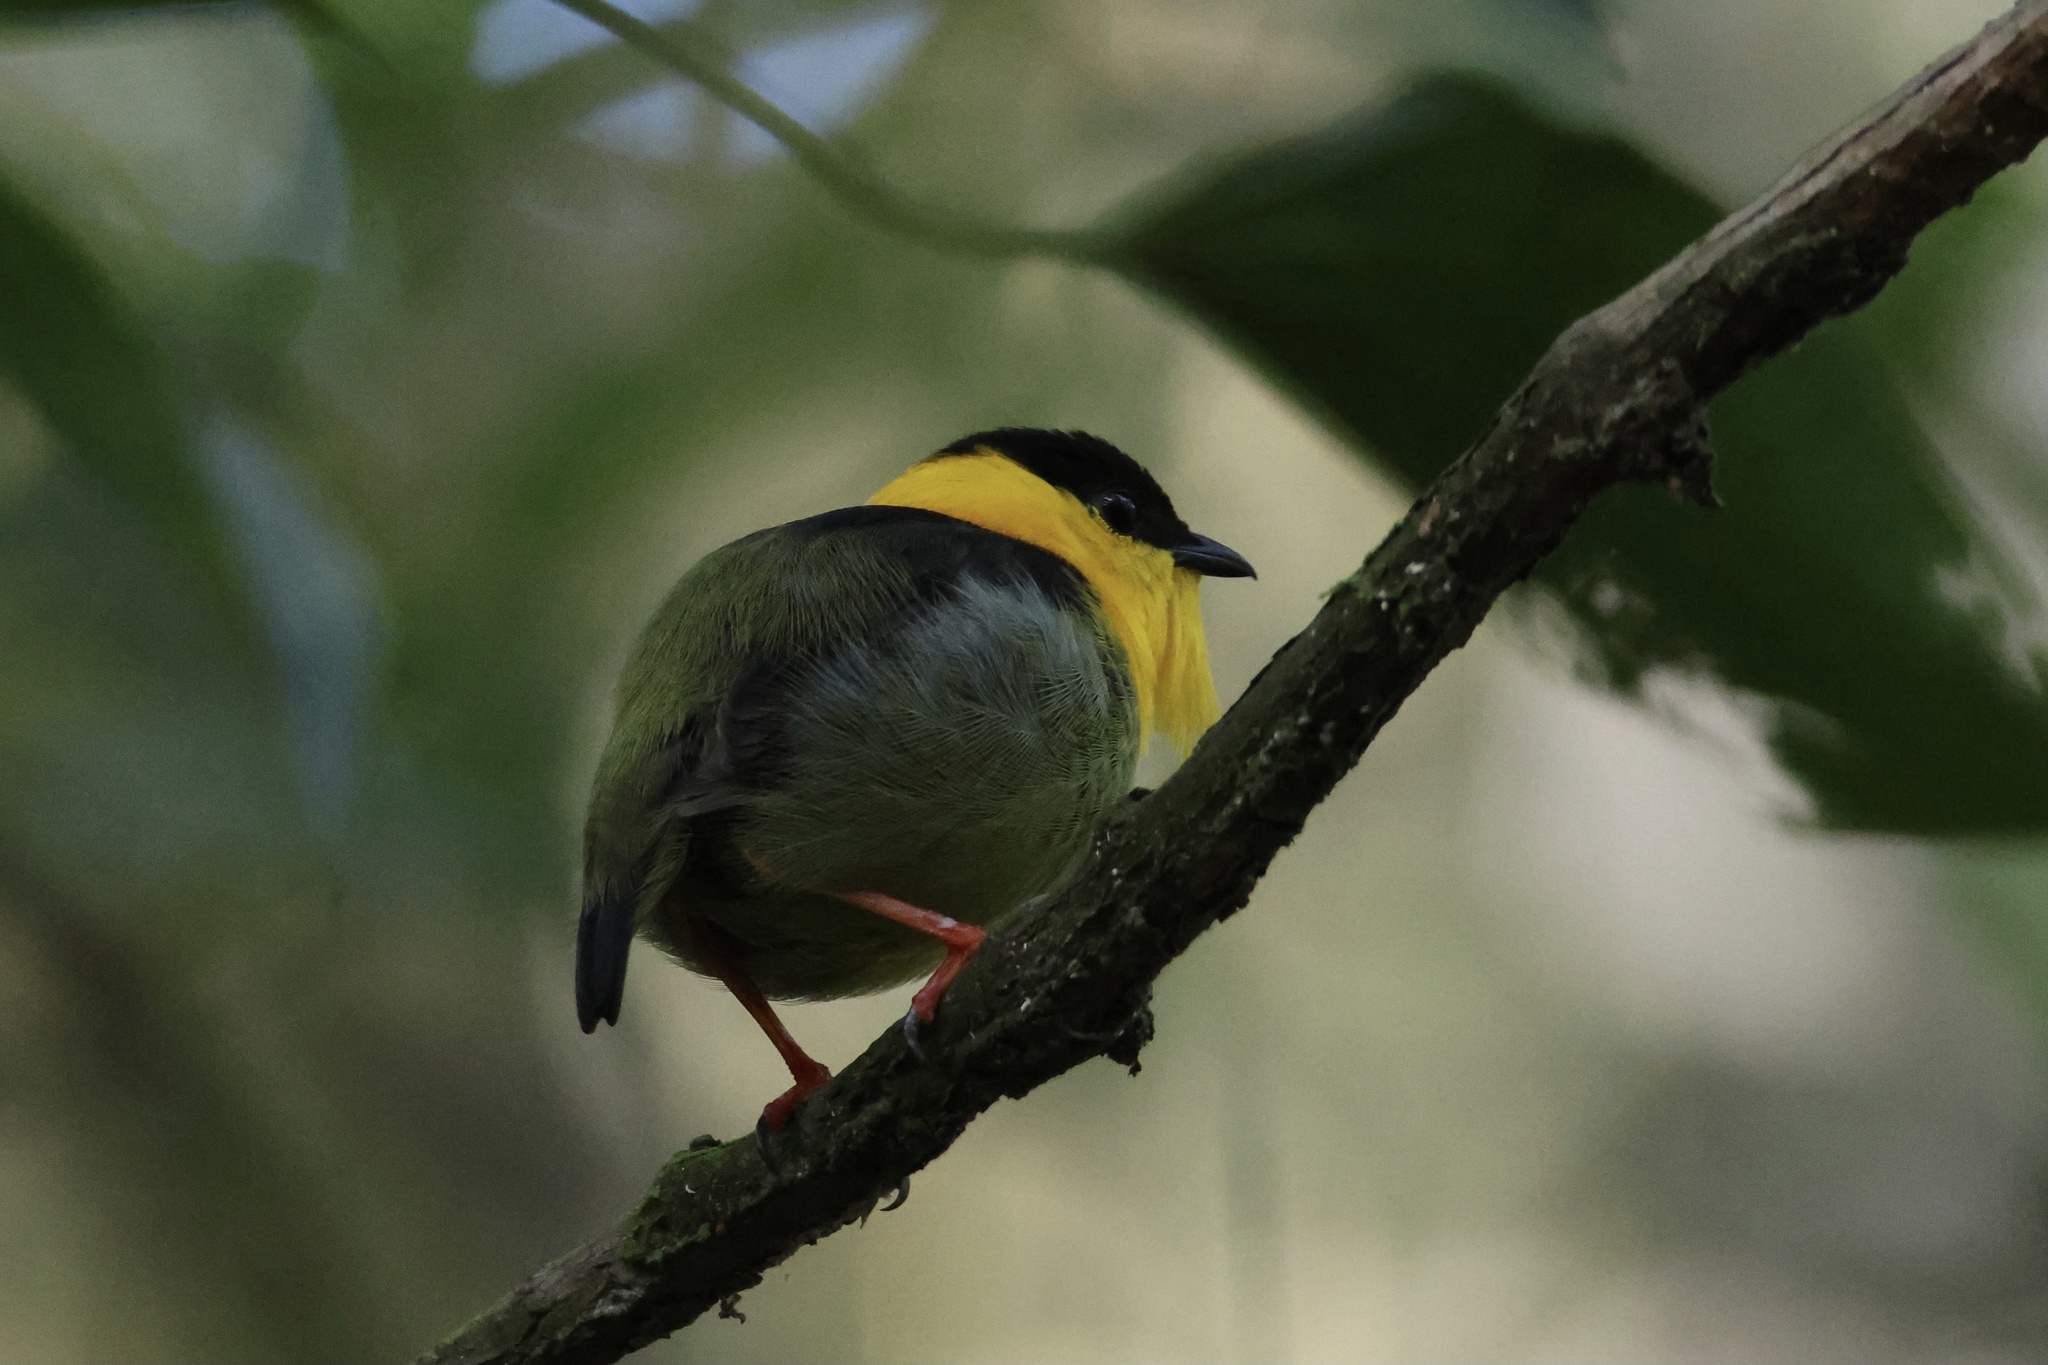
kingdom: Animalia
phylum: Chordata
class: Aves
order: Passeriformes
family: Pipridae
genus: Manacus
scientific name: Manacus vitellinus
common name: Golden-collared manakin
